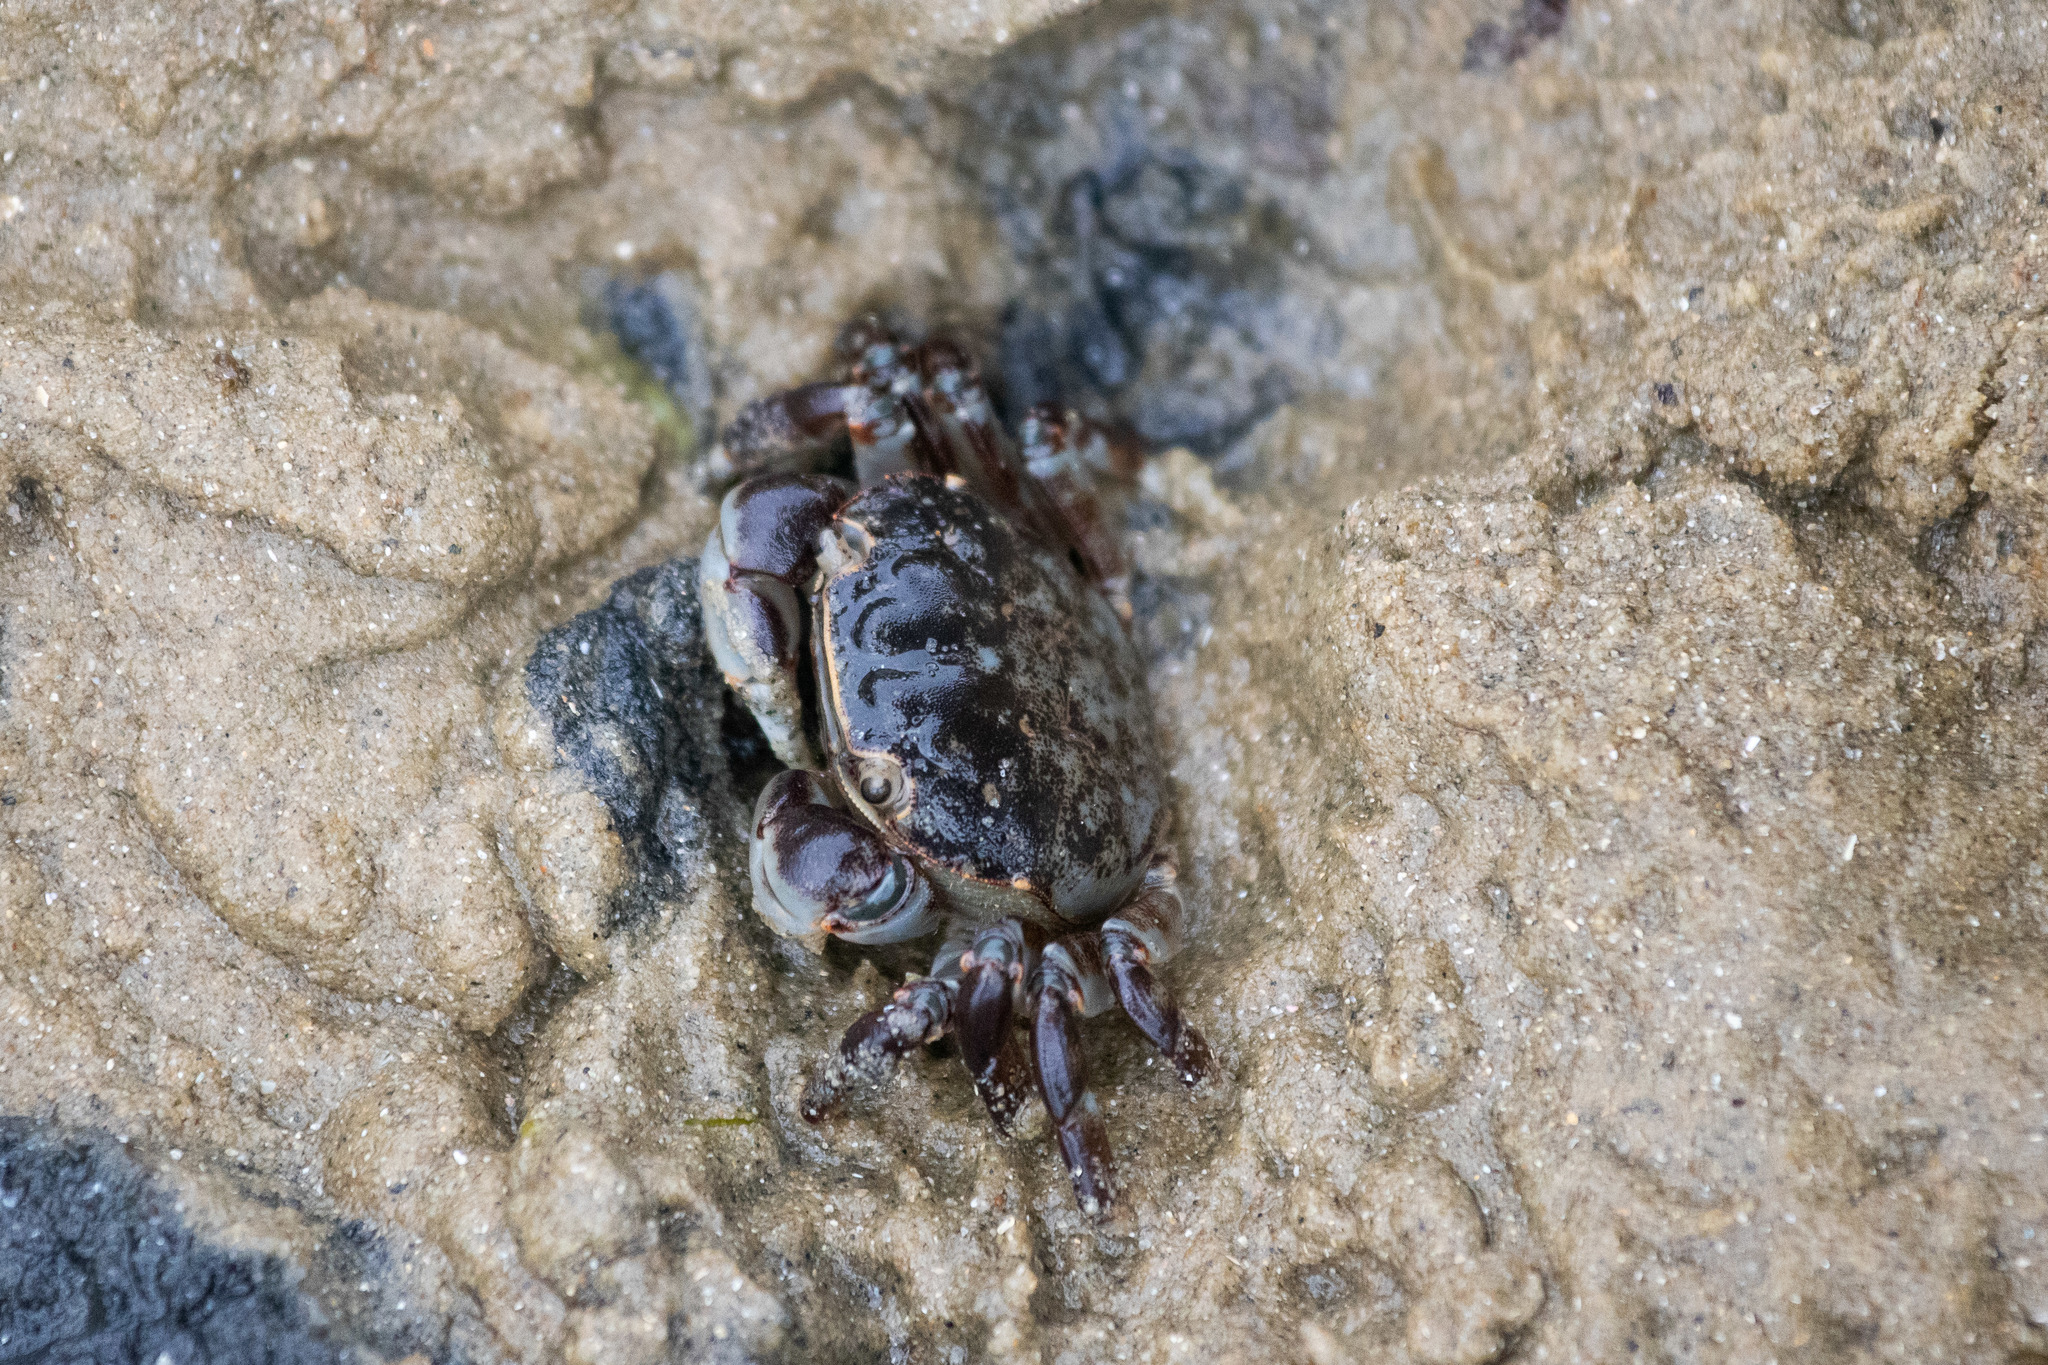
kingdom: Animalia
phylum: Arthropoda
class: Malacostraca
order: Decapoda
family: Varunidae
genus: Hemigrapsus
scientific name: Hemigrapsus sexdentatus
